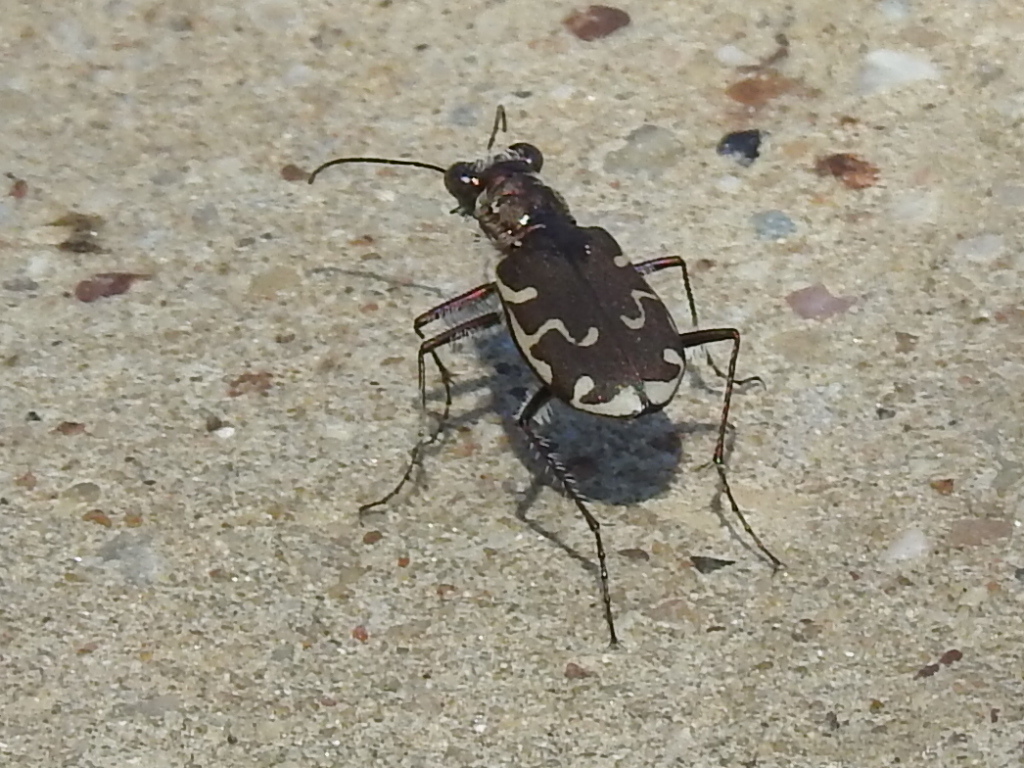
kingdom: Animalia
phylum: Arthropoda
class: Insecta
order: Coleoptera
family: Carabidae
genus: Cicindela
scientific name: Cicindela repanda
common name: Bronzed tiger beetle
